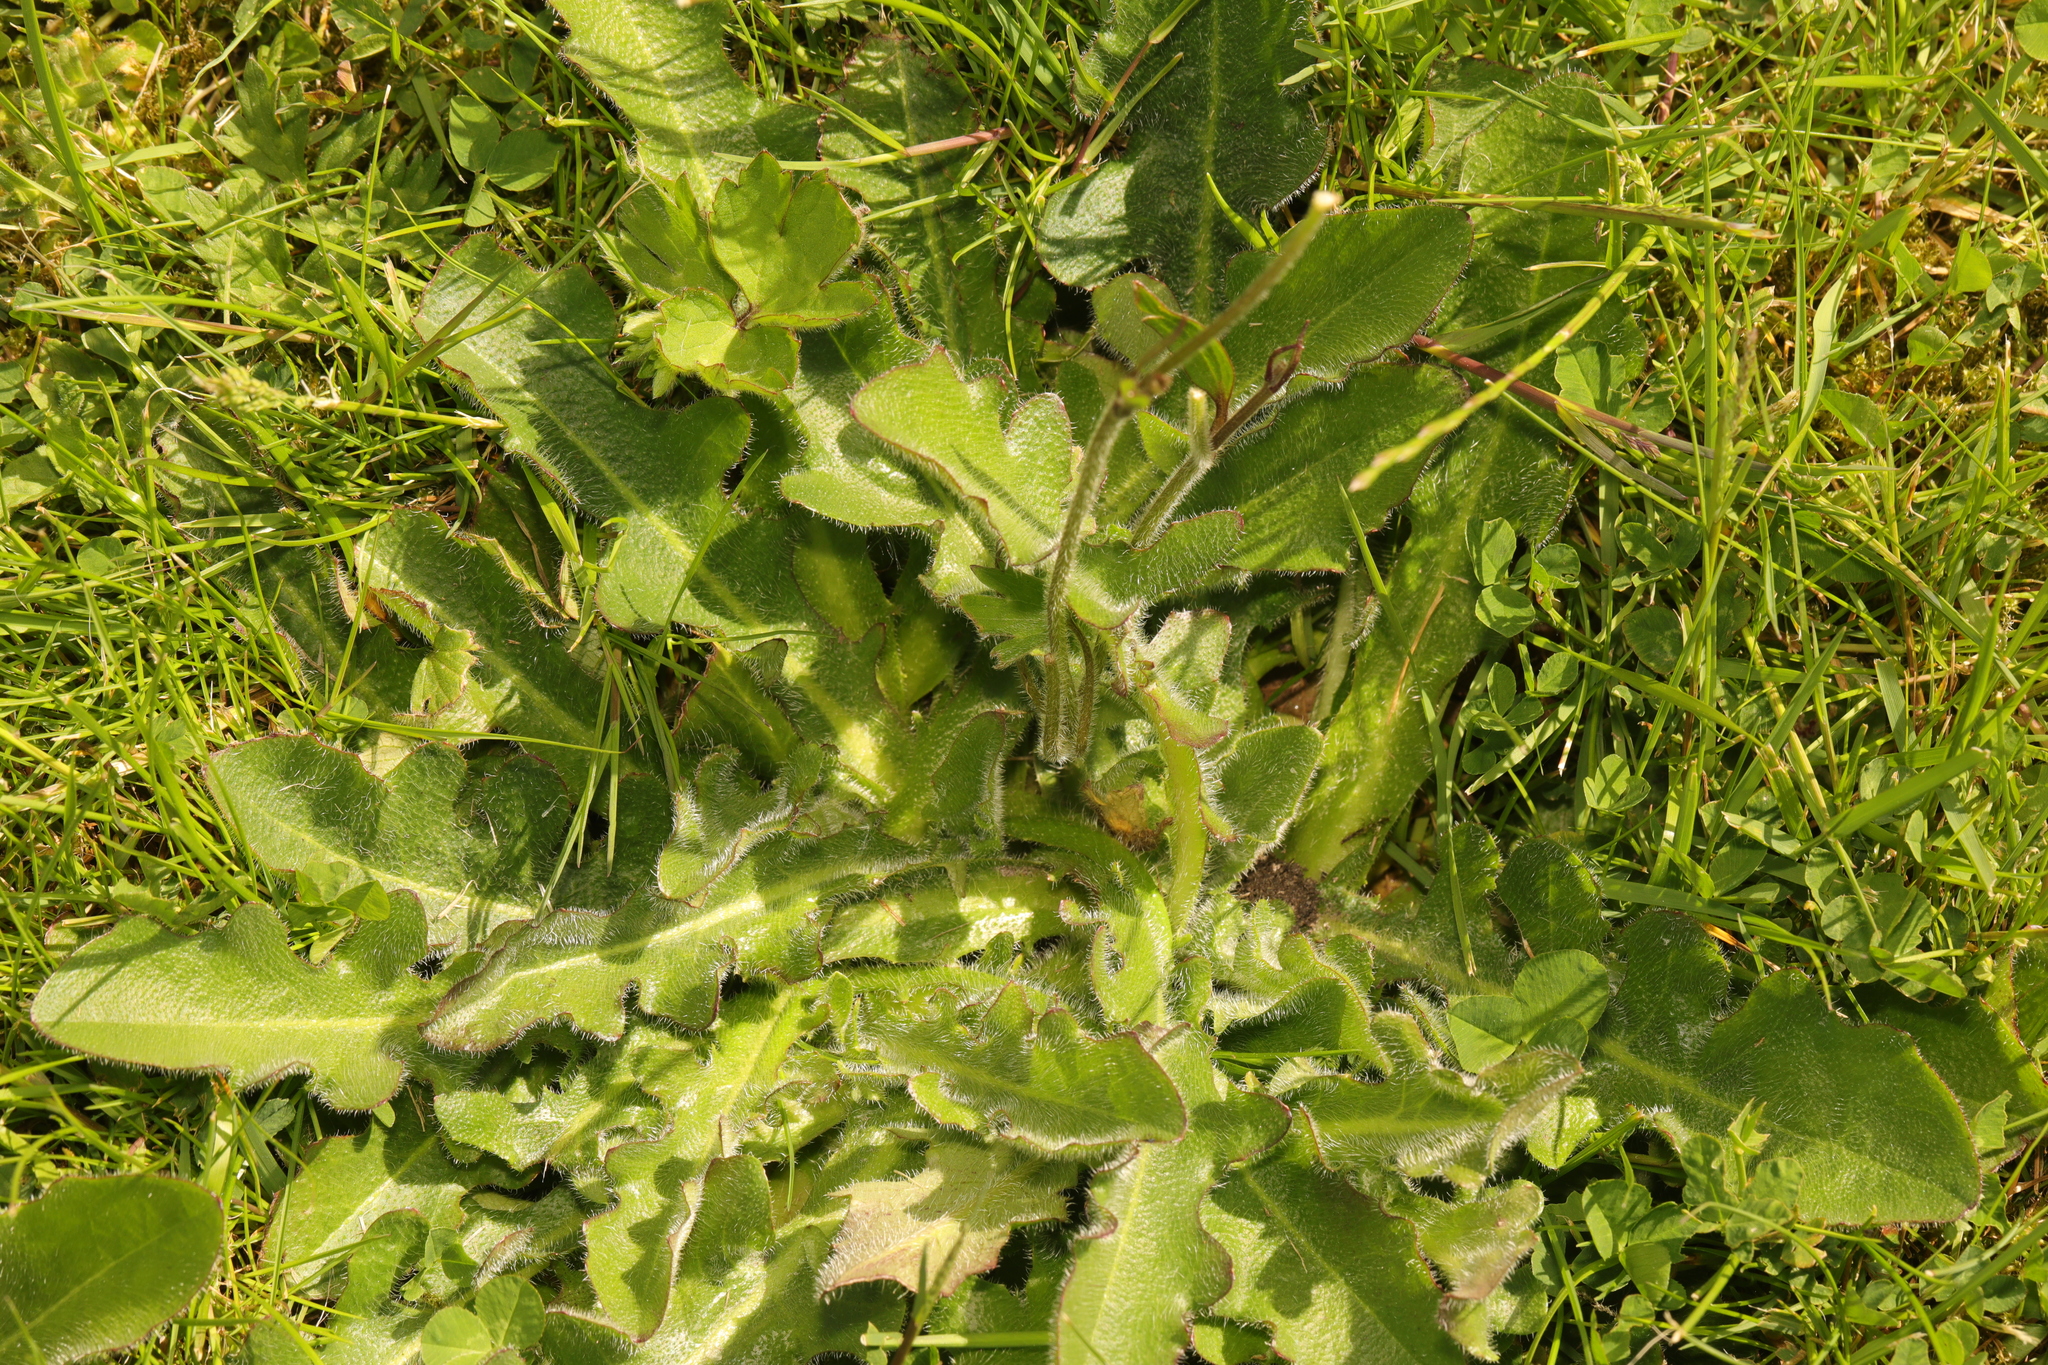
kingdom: Plantae
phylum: Tracheophyta
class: Magnoliopsida
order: Asterales
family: Asteraceae
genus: Hypochaeris
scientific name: Hypochaeris radicata
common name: Flatweed
